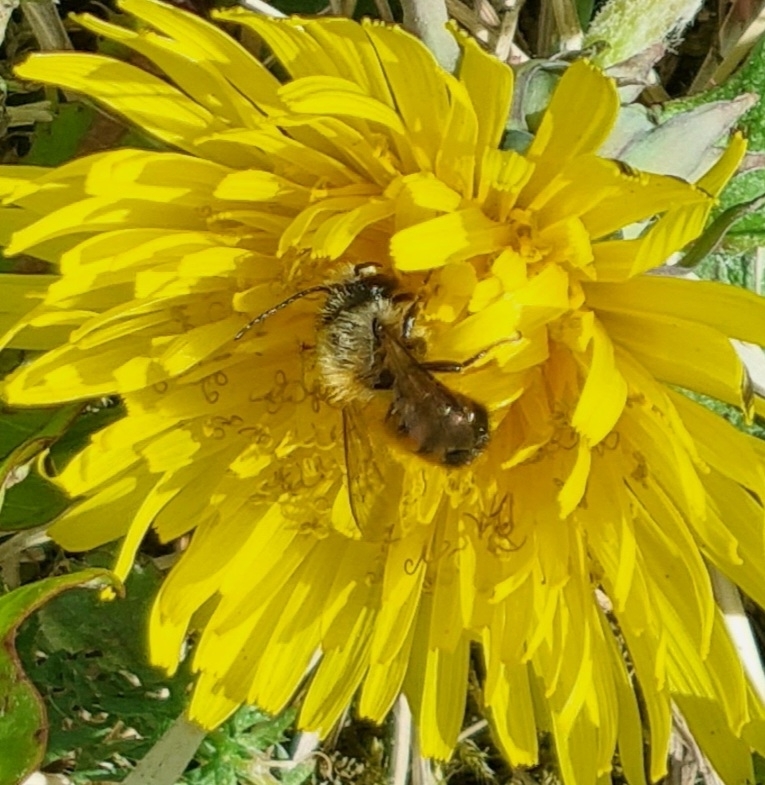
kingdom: Animalia
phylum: Arthropoda
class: Insecta
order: Hymenoptera
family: Megachilidae
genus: Osmia
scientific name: Osmia bicornis
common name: Red mason bee
